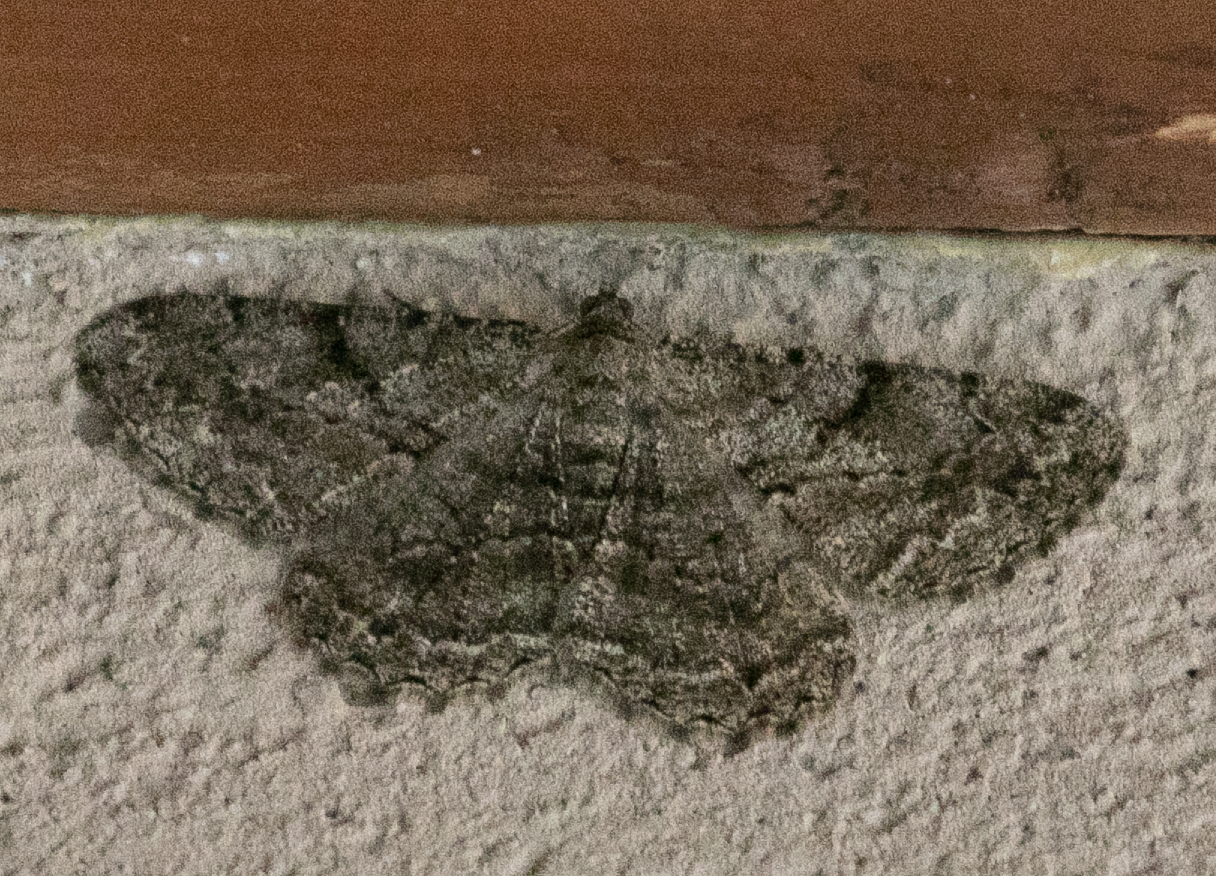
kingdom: Animalia
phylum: Arthropoda
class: Insecta
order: Lepidoptera
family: Geometridae
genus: Peribatodes
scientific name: Peribatodes rhomboidaria
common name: Willow beauty
